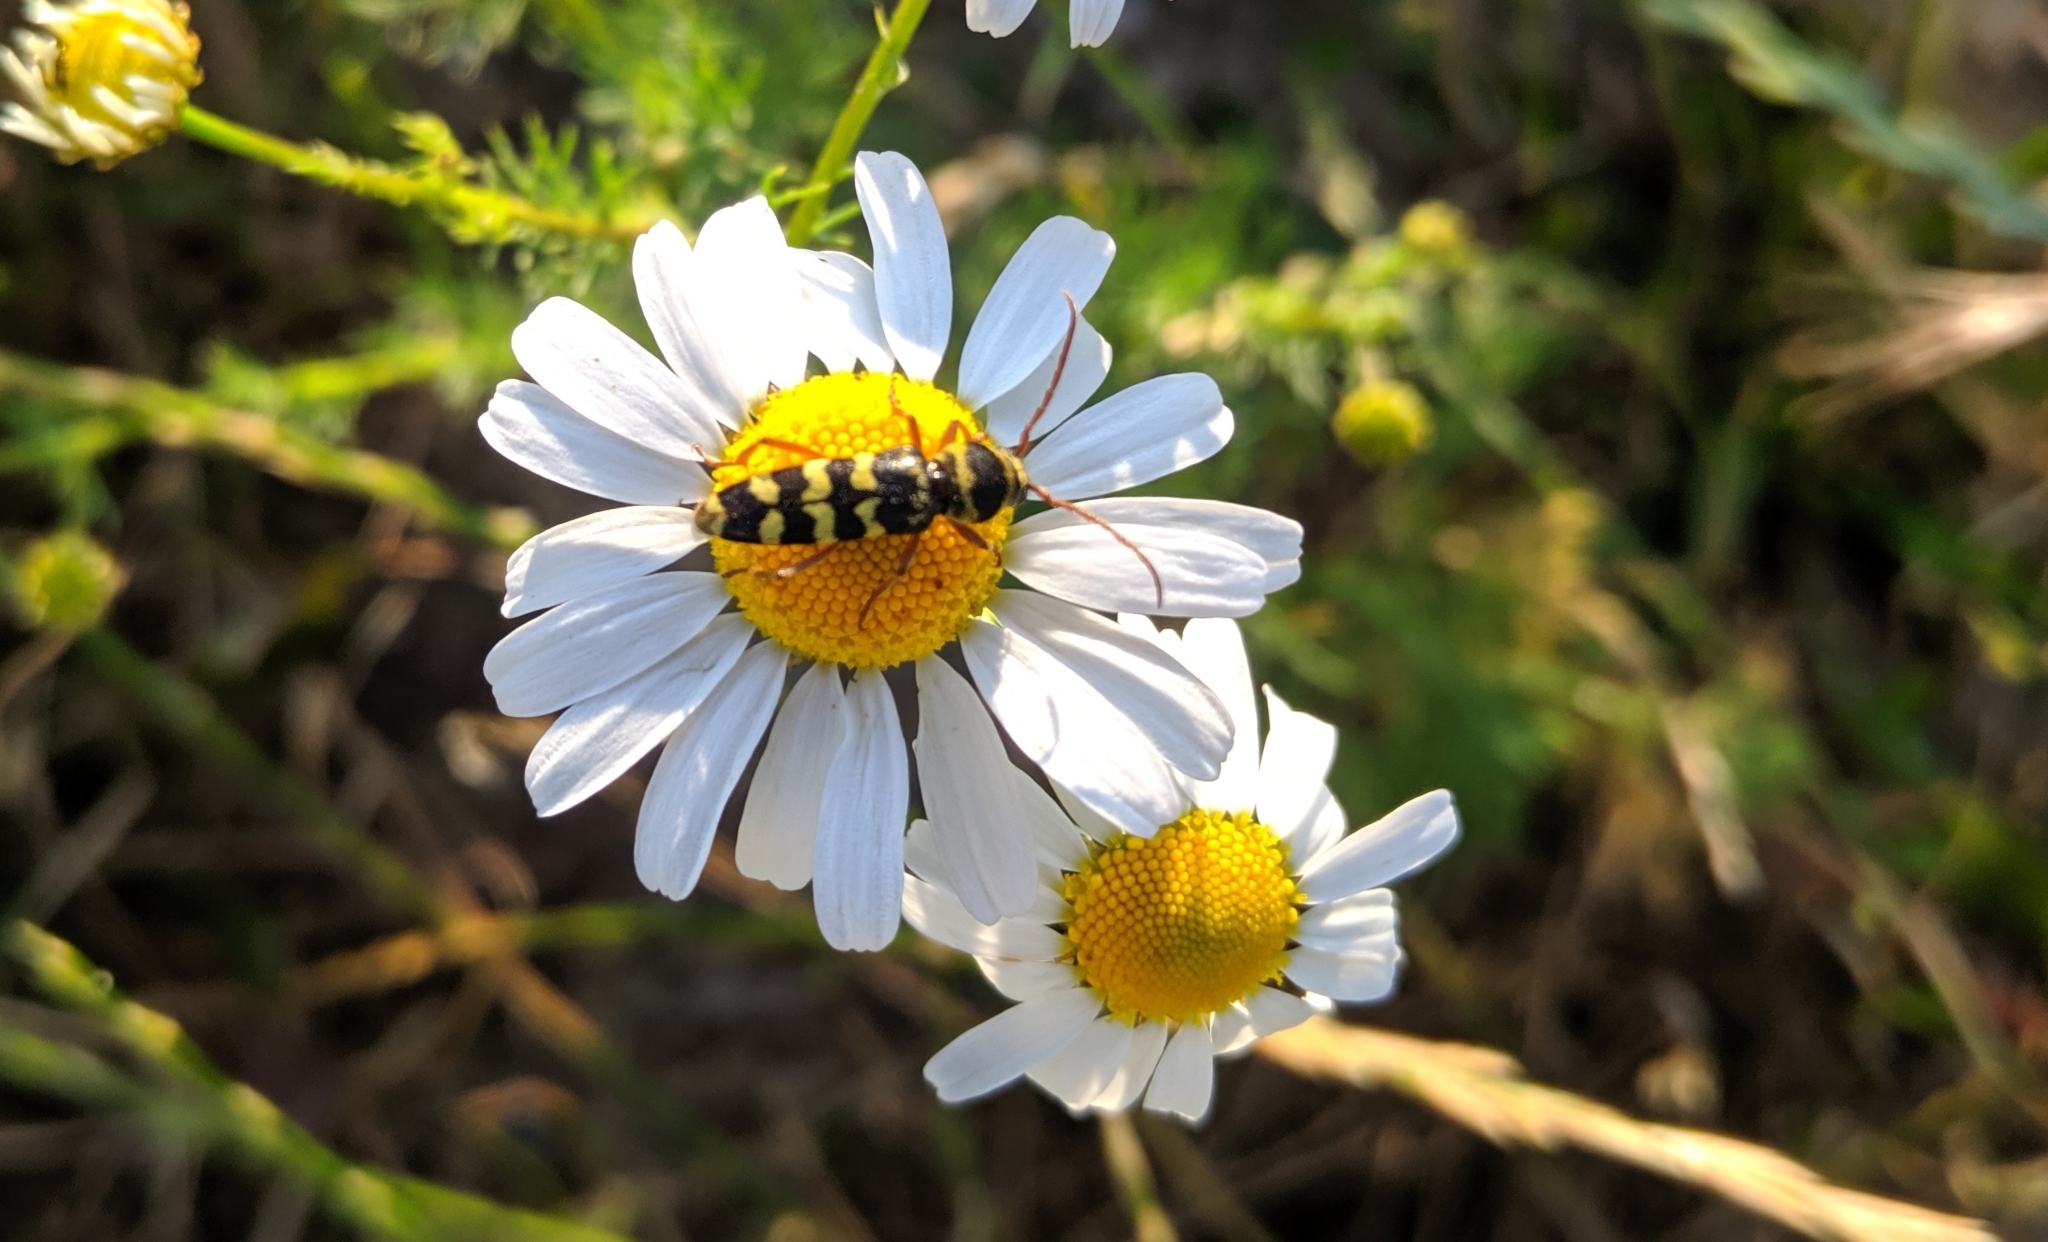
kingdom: Animalia
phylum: Arthropoda
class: Insecta
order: Coleoptera
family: Cerambycidae
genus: Plagionotus
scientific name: Plagionotus floralis
